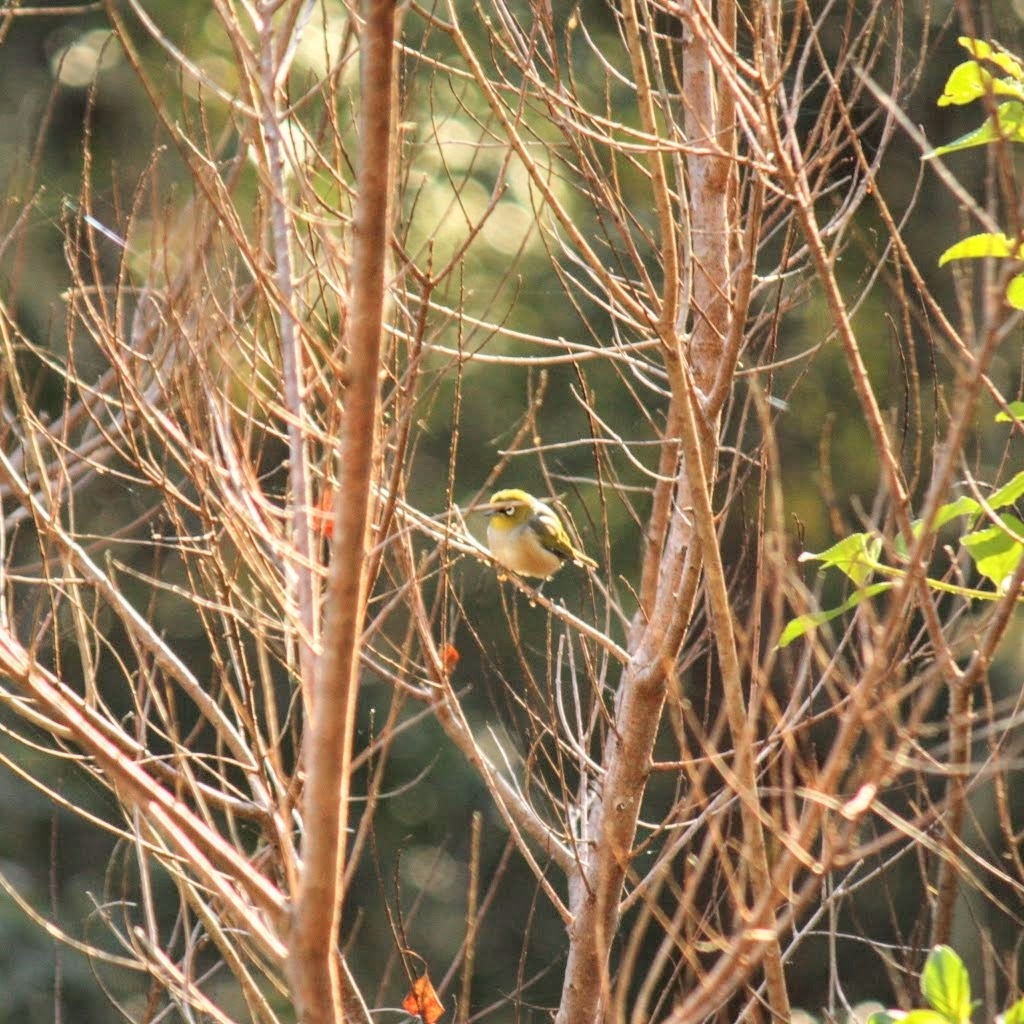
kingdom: Animalia
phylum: Chordata
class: Aves
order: Passeriformes
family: Zosteropidae
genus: Zosterops
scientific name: Zosterops lateralis
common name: Silvereye
